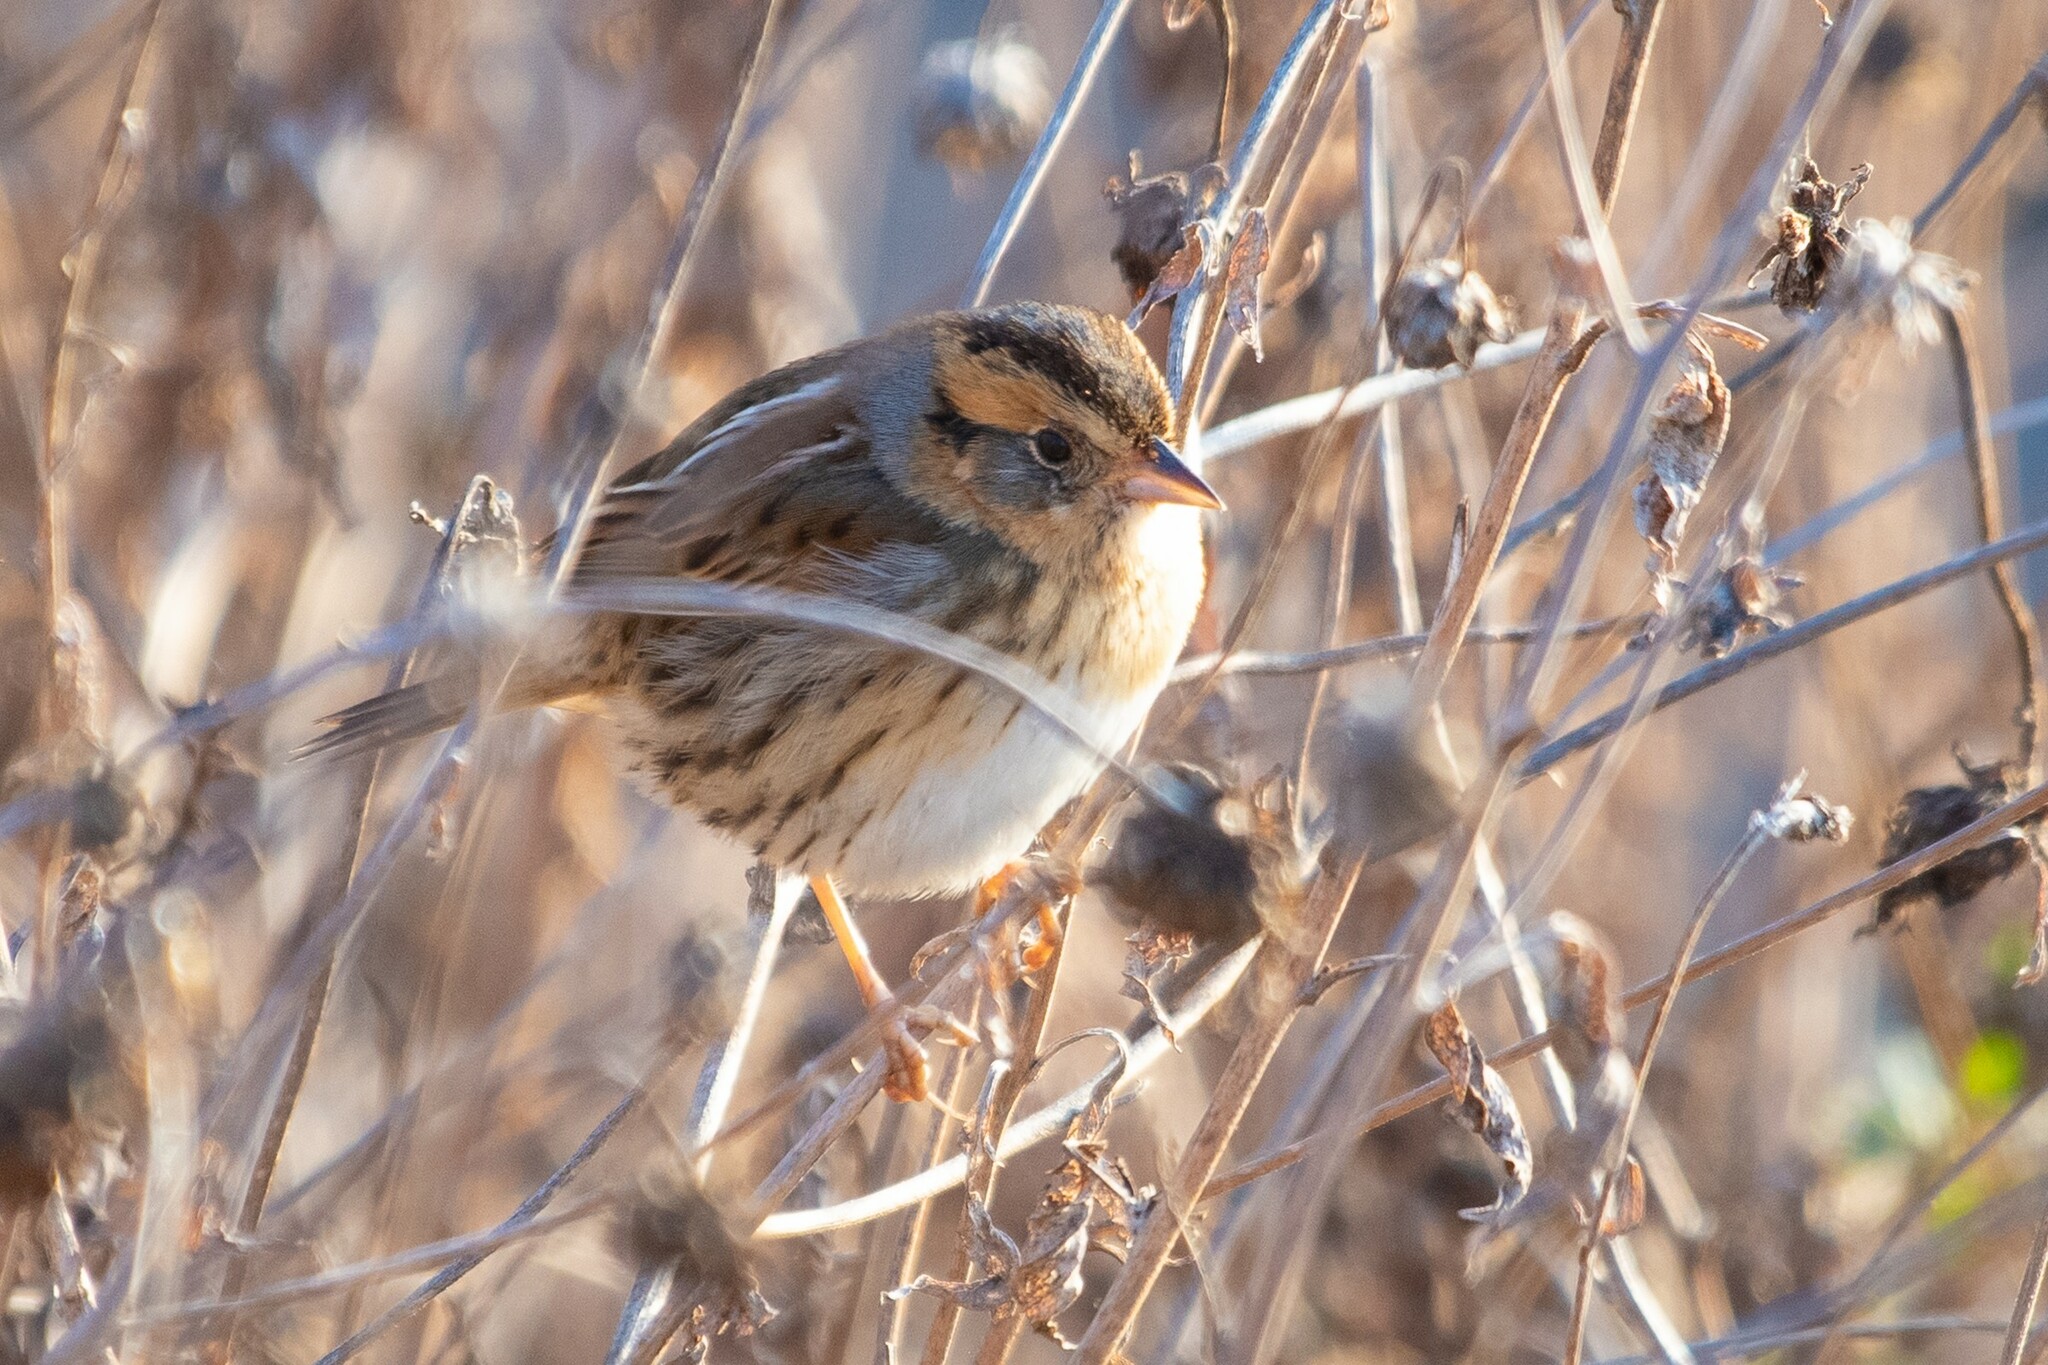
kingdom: Animalia
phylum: Chordata
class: Aves
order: Passeriformes
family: Passerellidae
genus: Ammospiza
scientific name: Ammospiza nelsoni
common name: Nelson's sparrow
